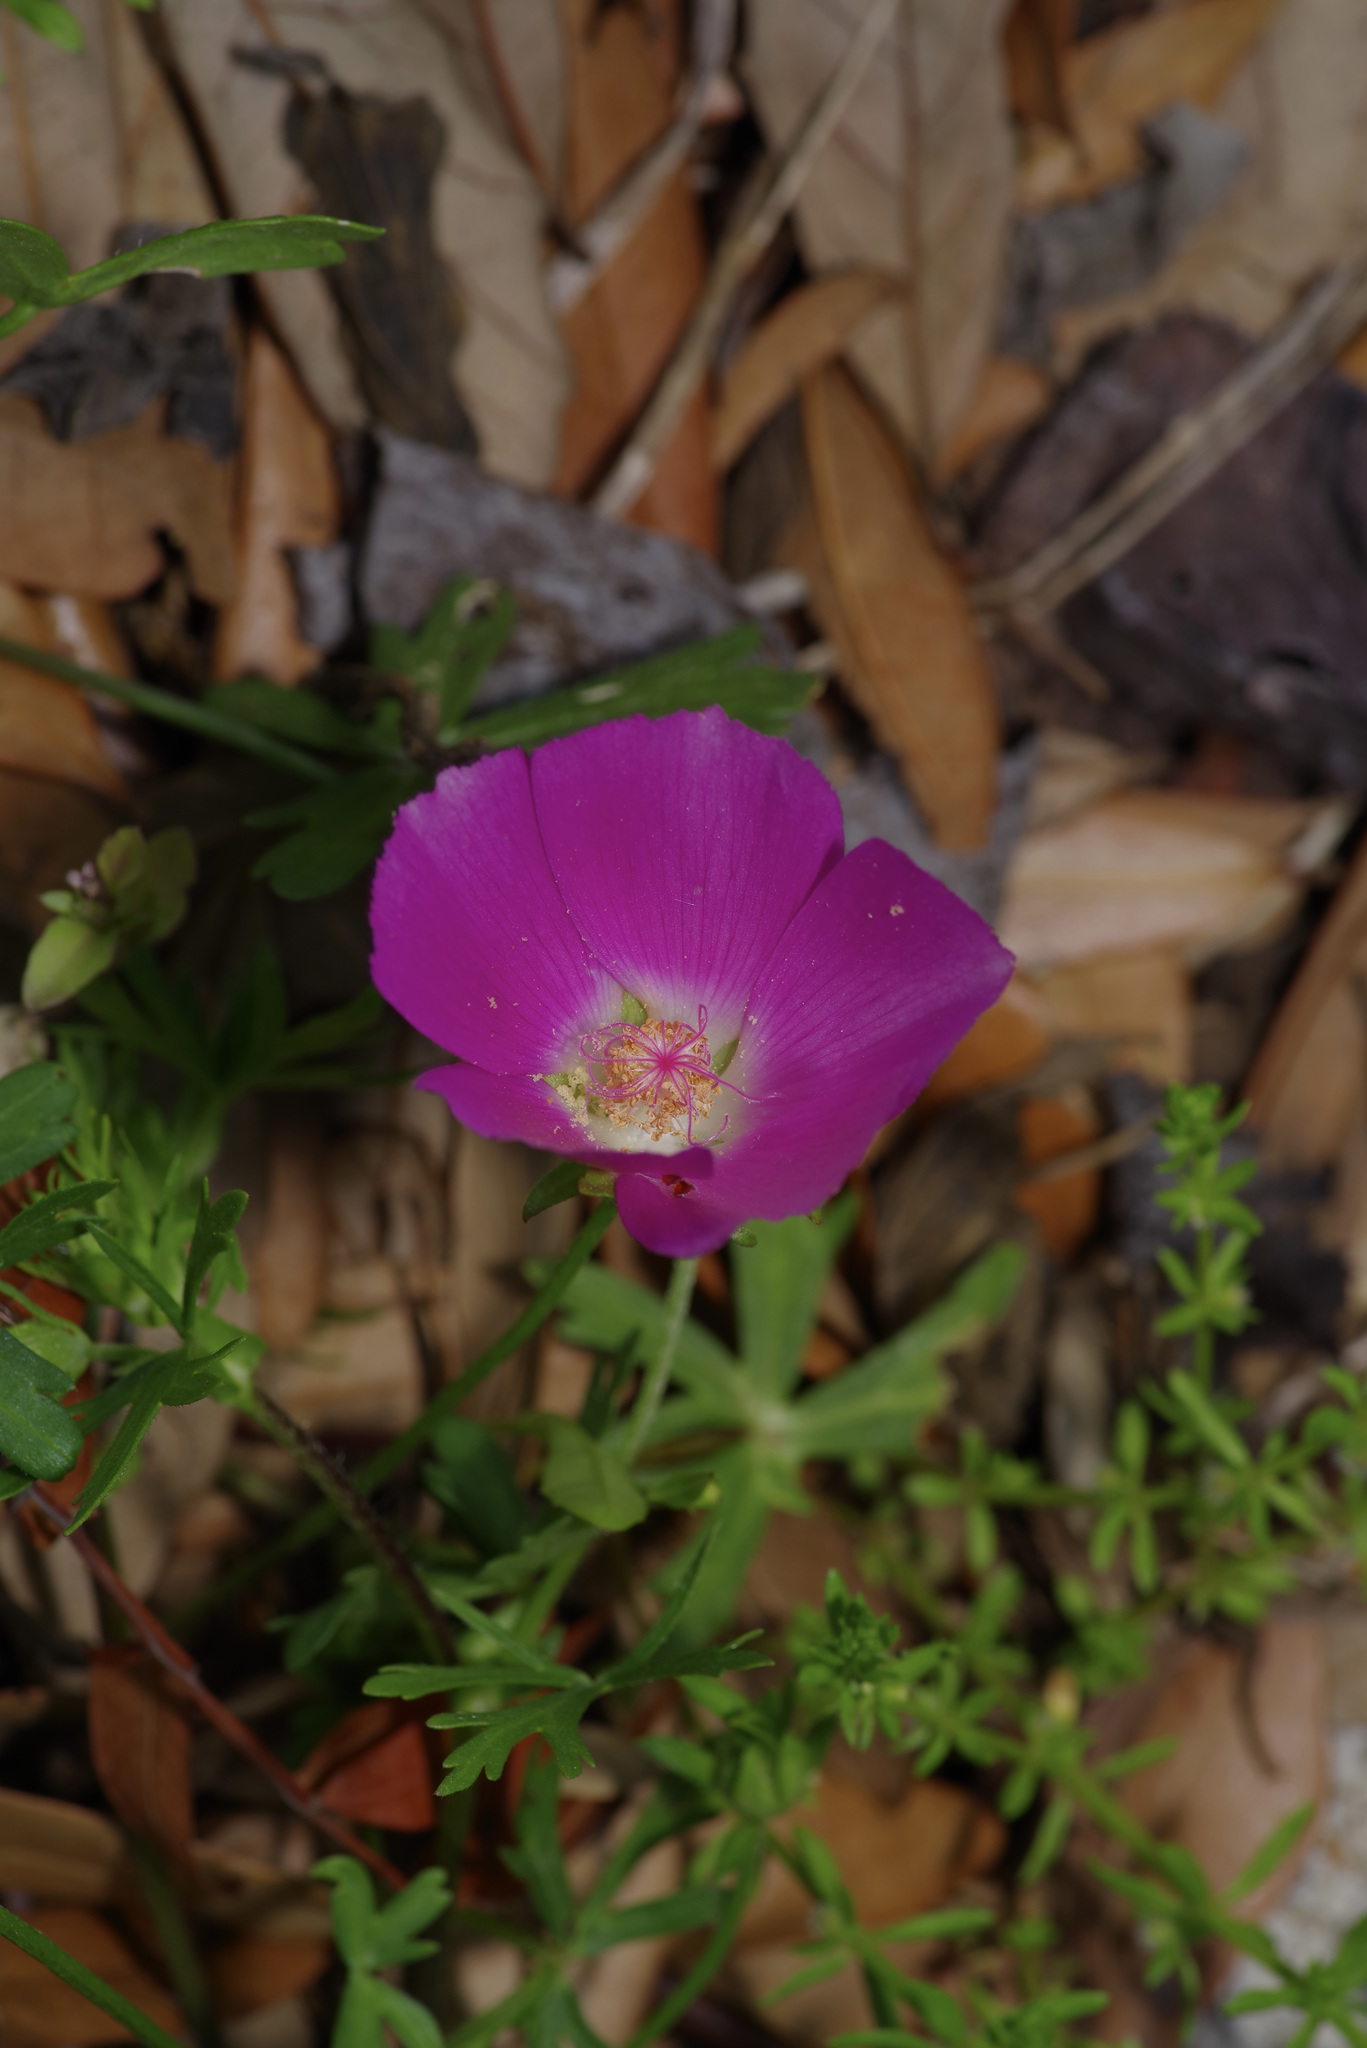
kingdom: Plantae
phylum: Tracheophyta
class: Magnoliopsida
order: Malvales
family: Malvaceae
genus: Callirhoe
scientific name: Callirhoe involucrata
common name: Purple poppy-mallow
